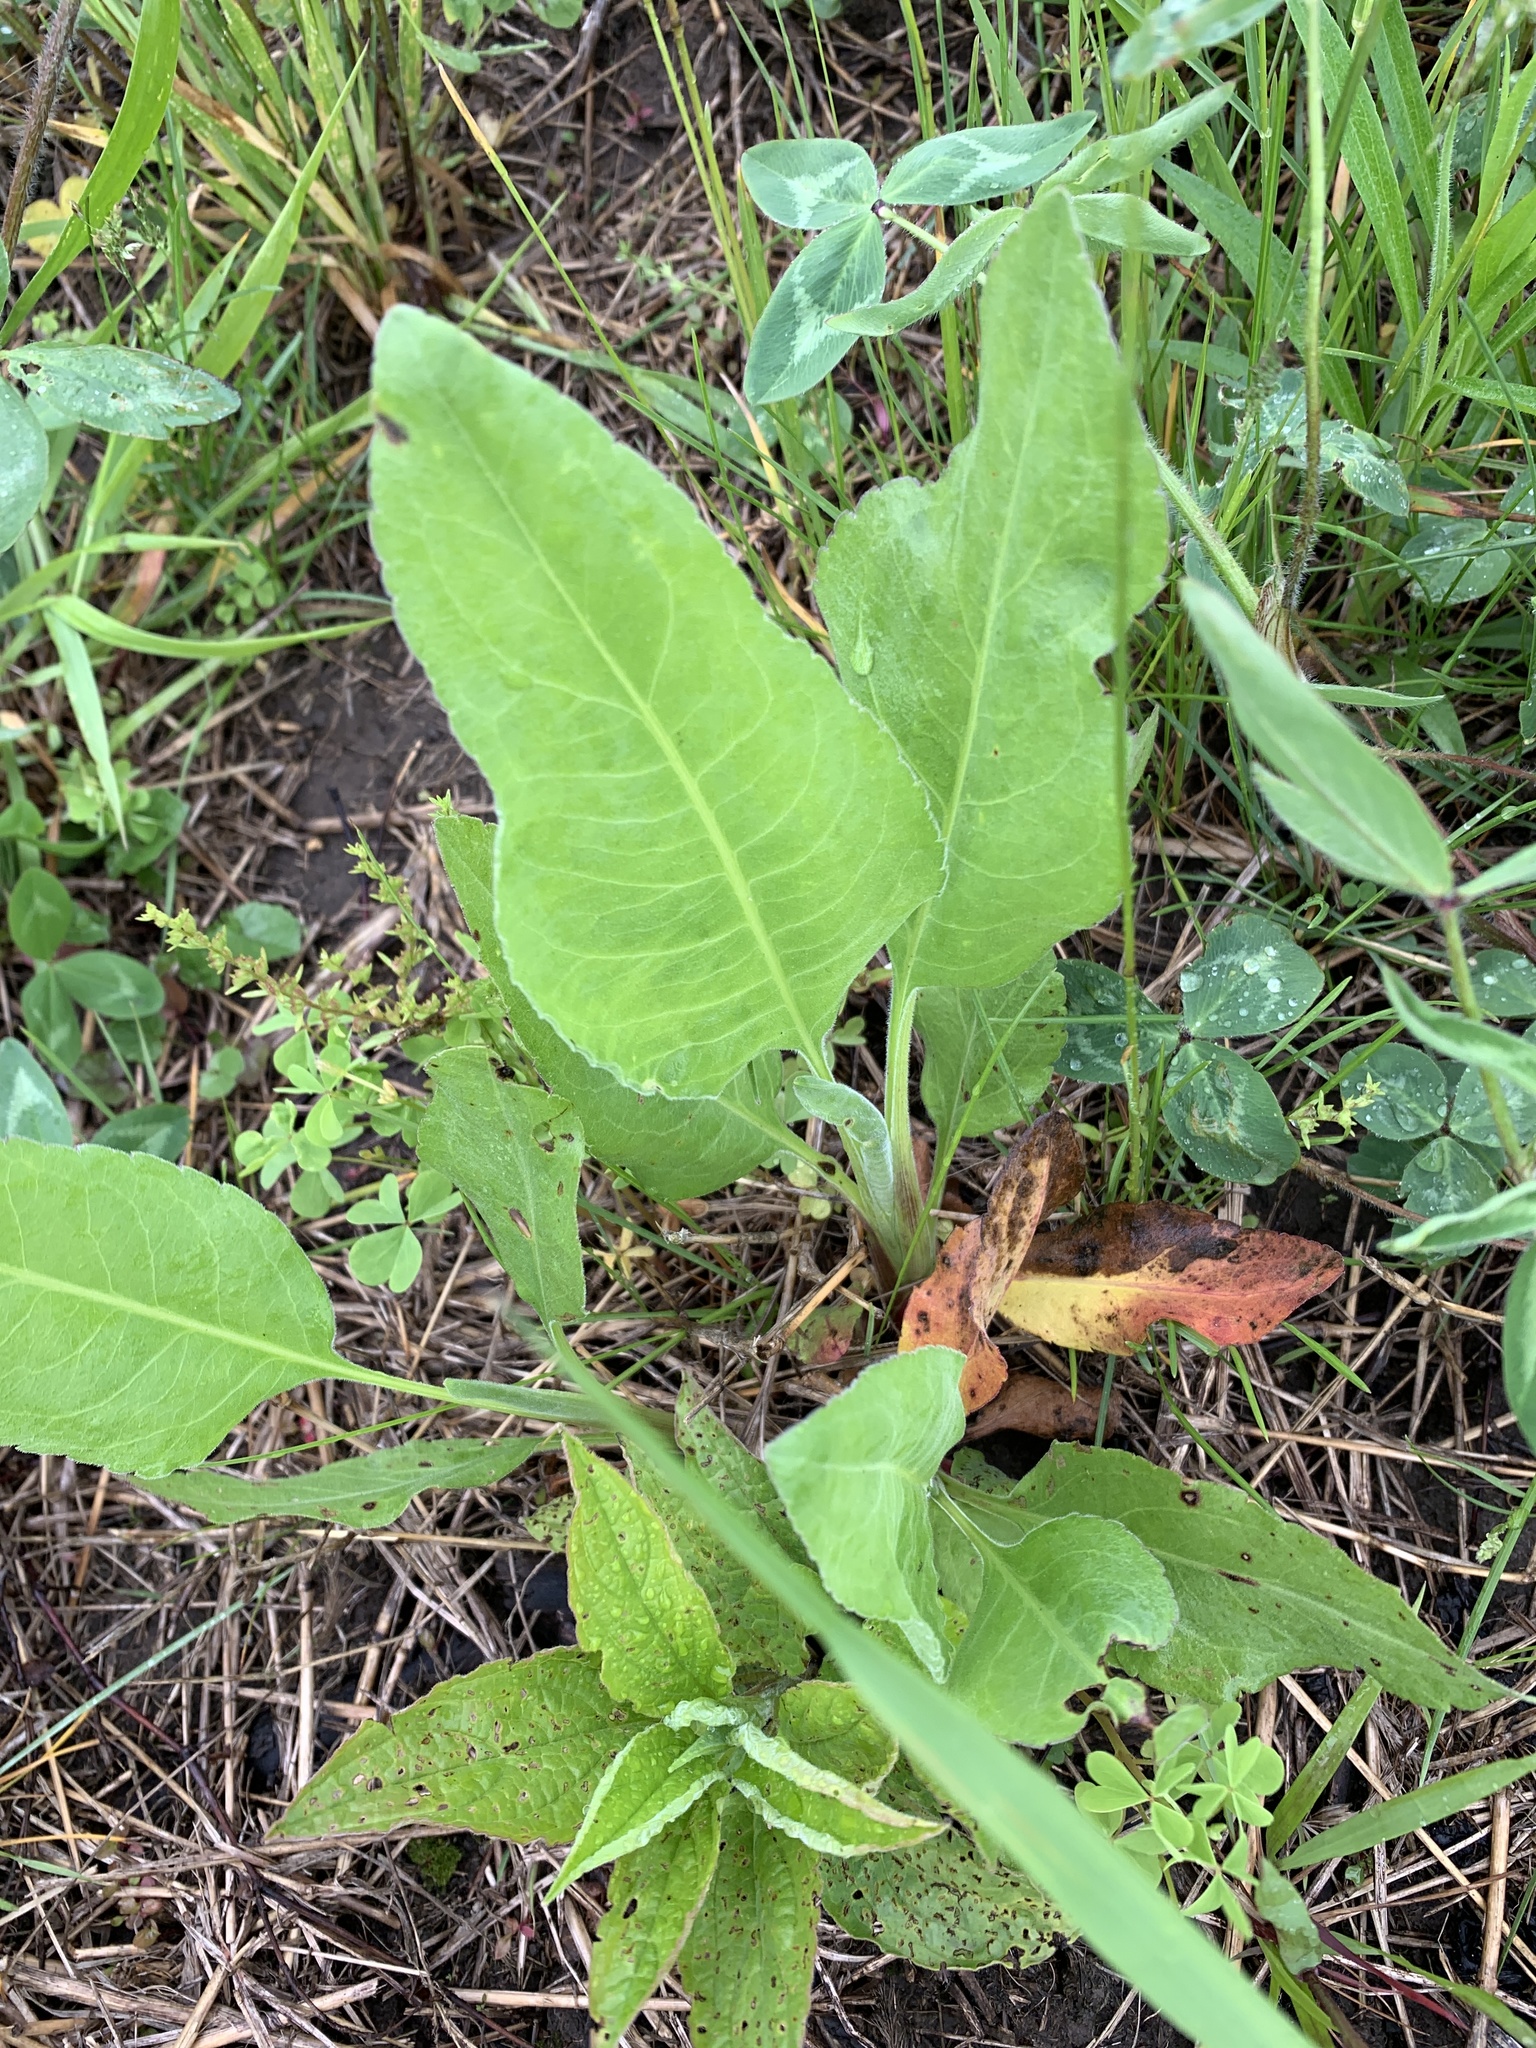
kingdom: Plantae
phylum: Tracheophyta
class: Magnoliopsida
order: Asterales
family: Asteraceae
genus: Silphium
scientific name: Silphium terebinthinaceum
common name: Basal-leaf rosinweed
